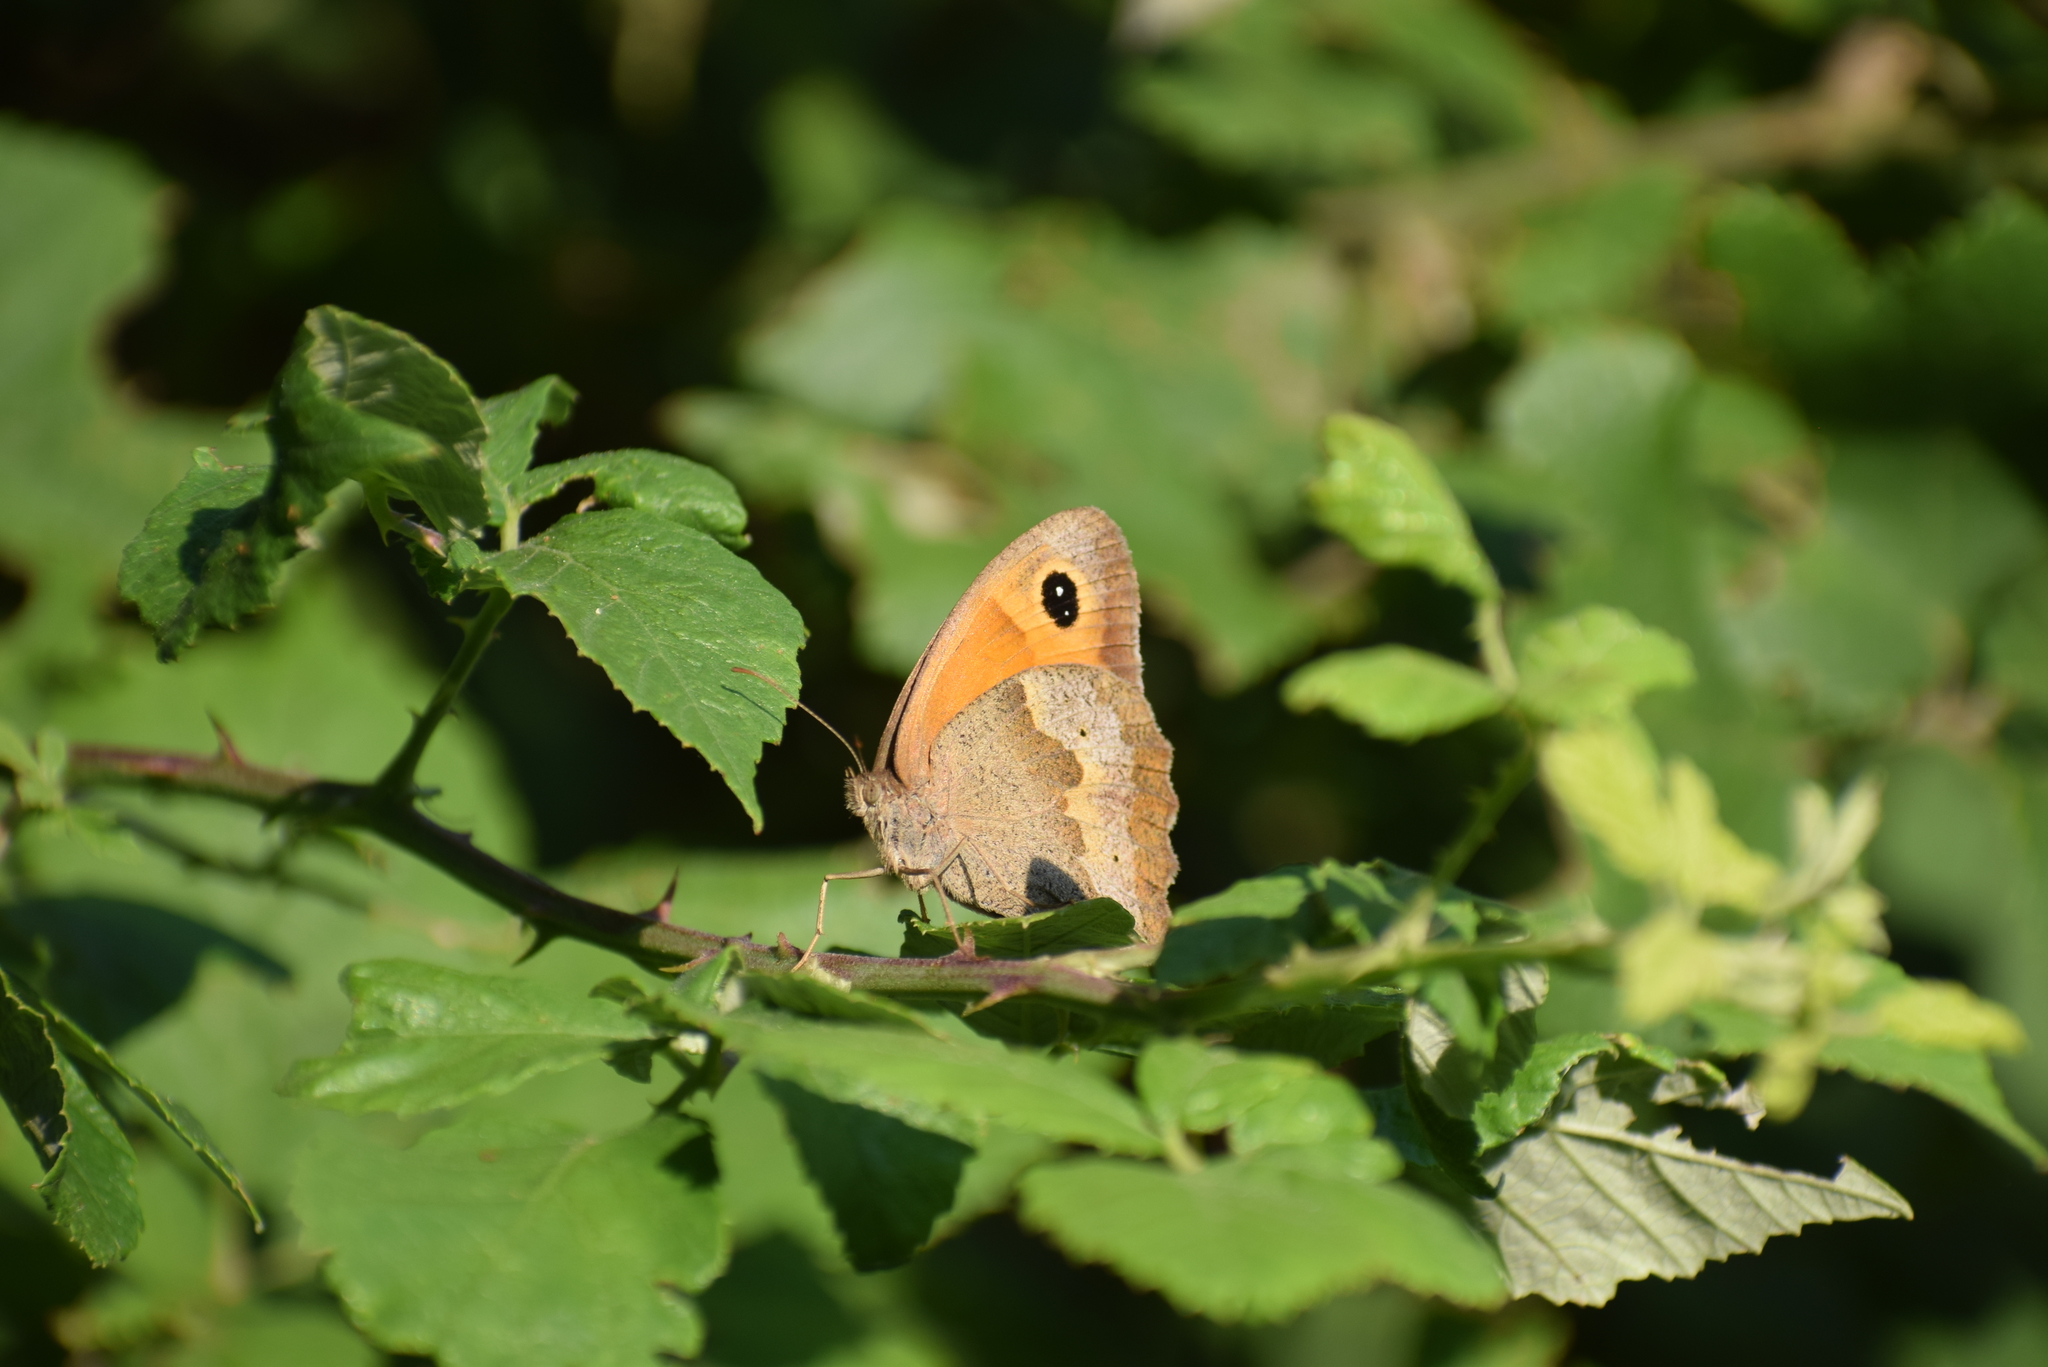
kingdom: Animalia
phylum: Arthropoda
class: Insecta
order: Lepidoptera
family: Nymphalidae
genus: Maniola
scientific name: Maniola jurtina
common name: Meadow brown
